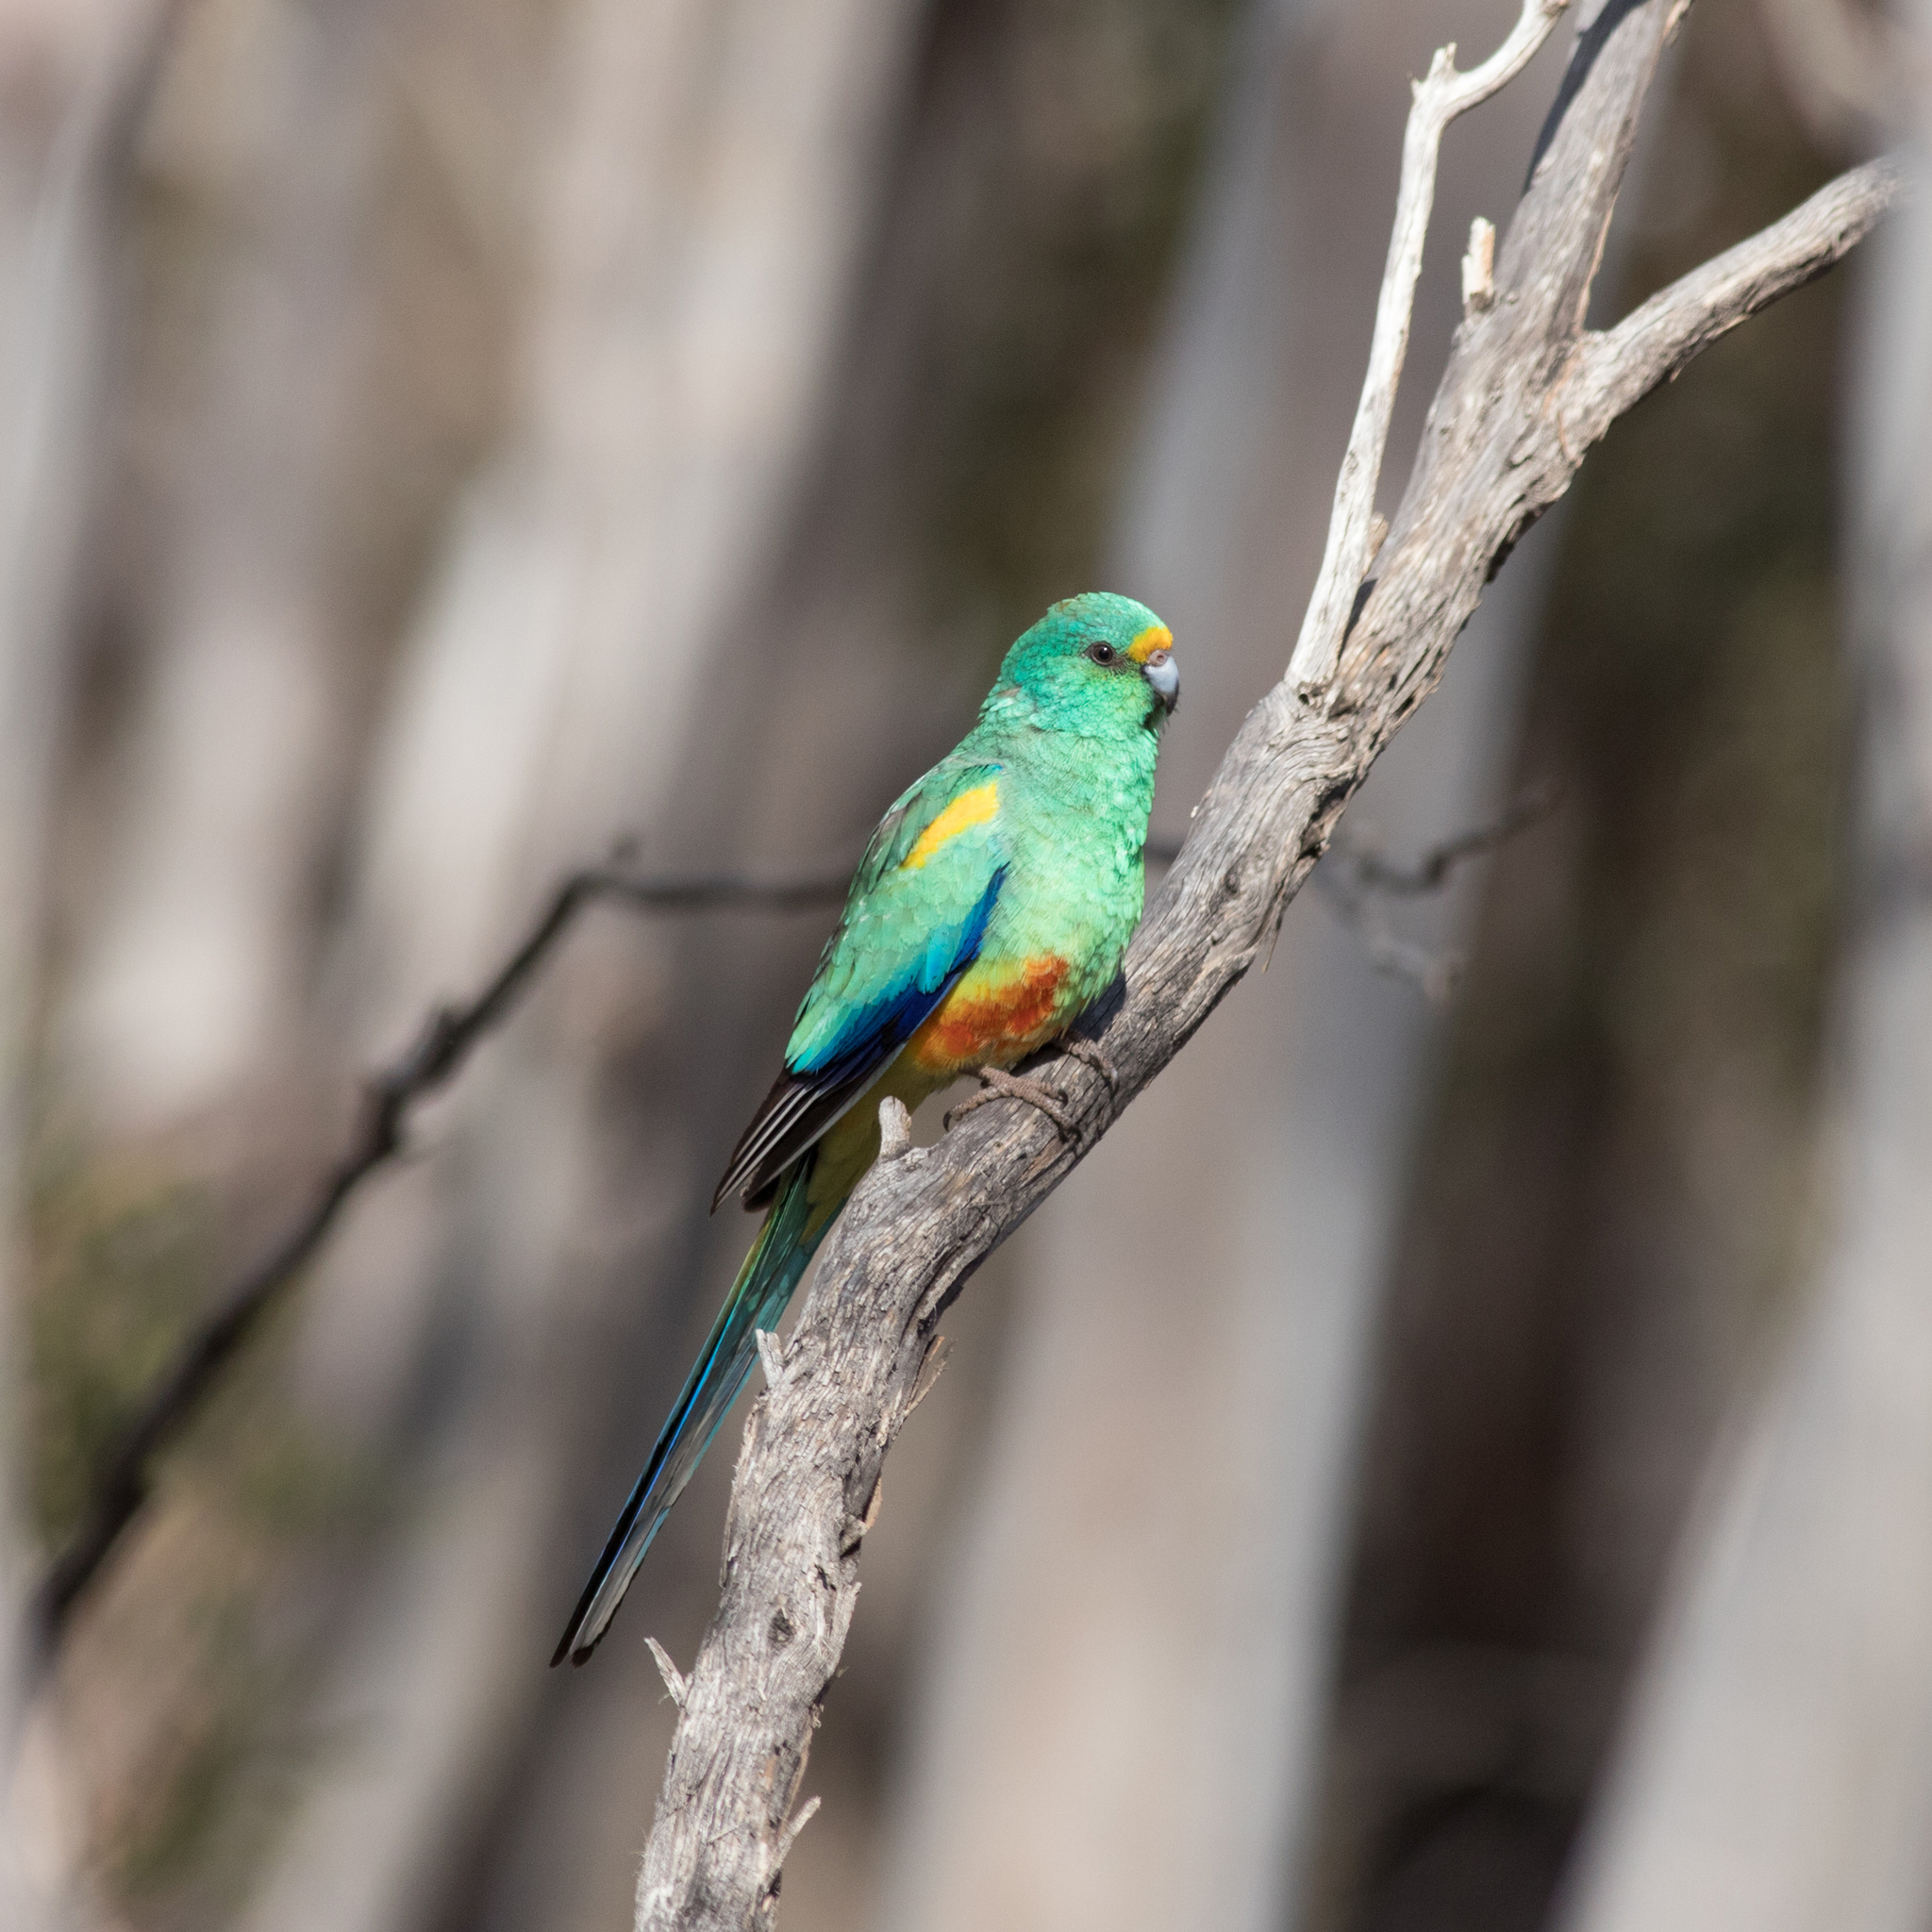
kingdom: Animalia
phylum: Chordata
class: Aves
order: Psittaciformes
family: Psittaculidae
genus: Psephotellus
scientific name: Psephotellus varius
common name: Mulga parrot
